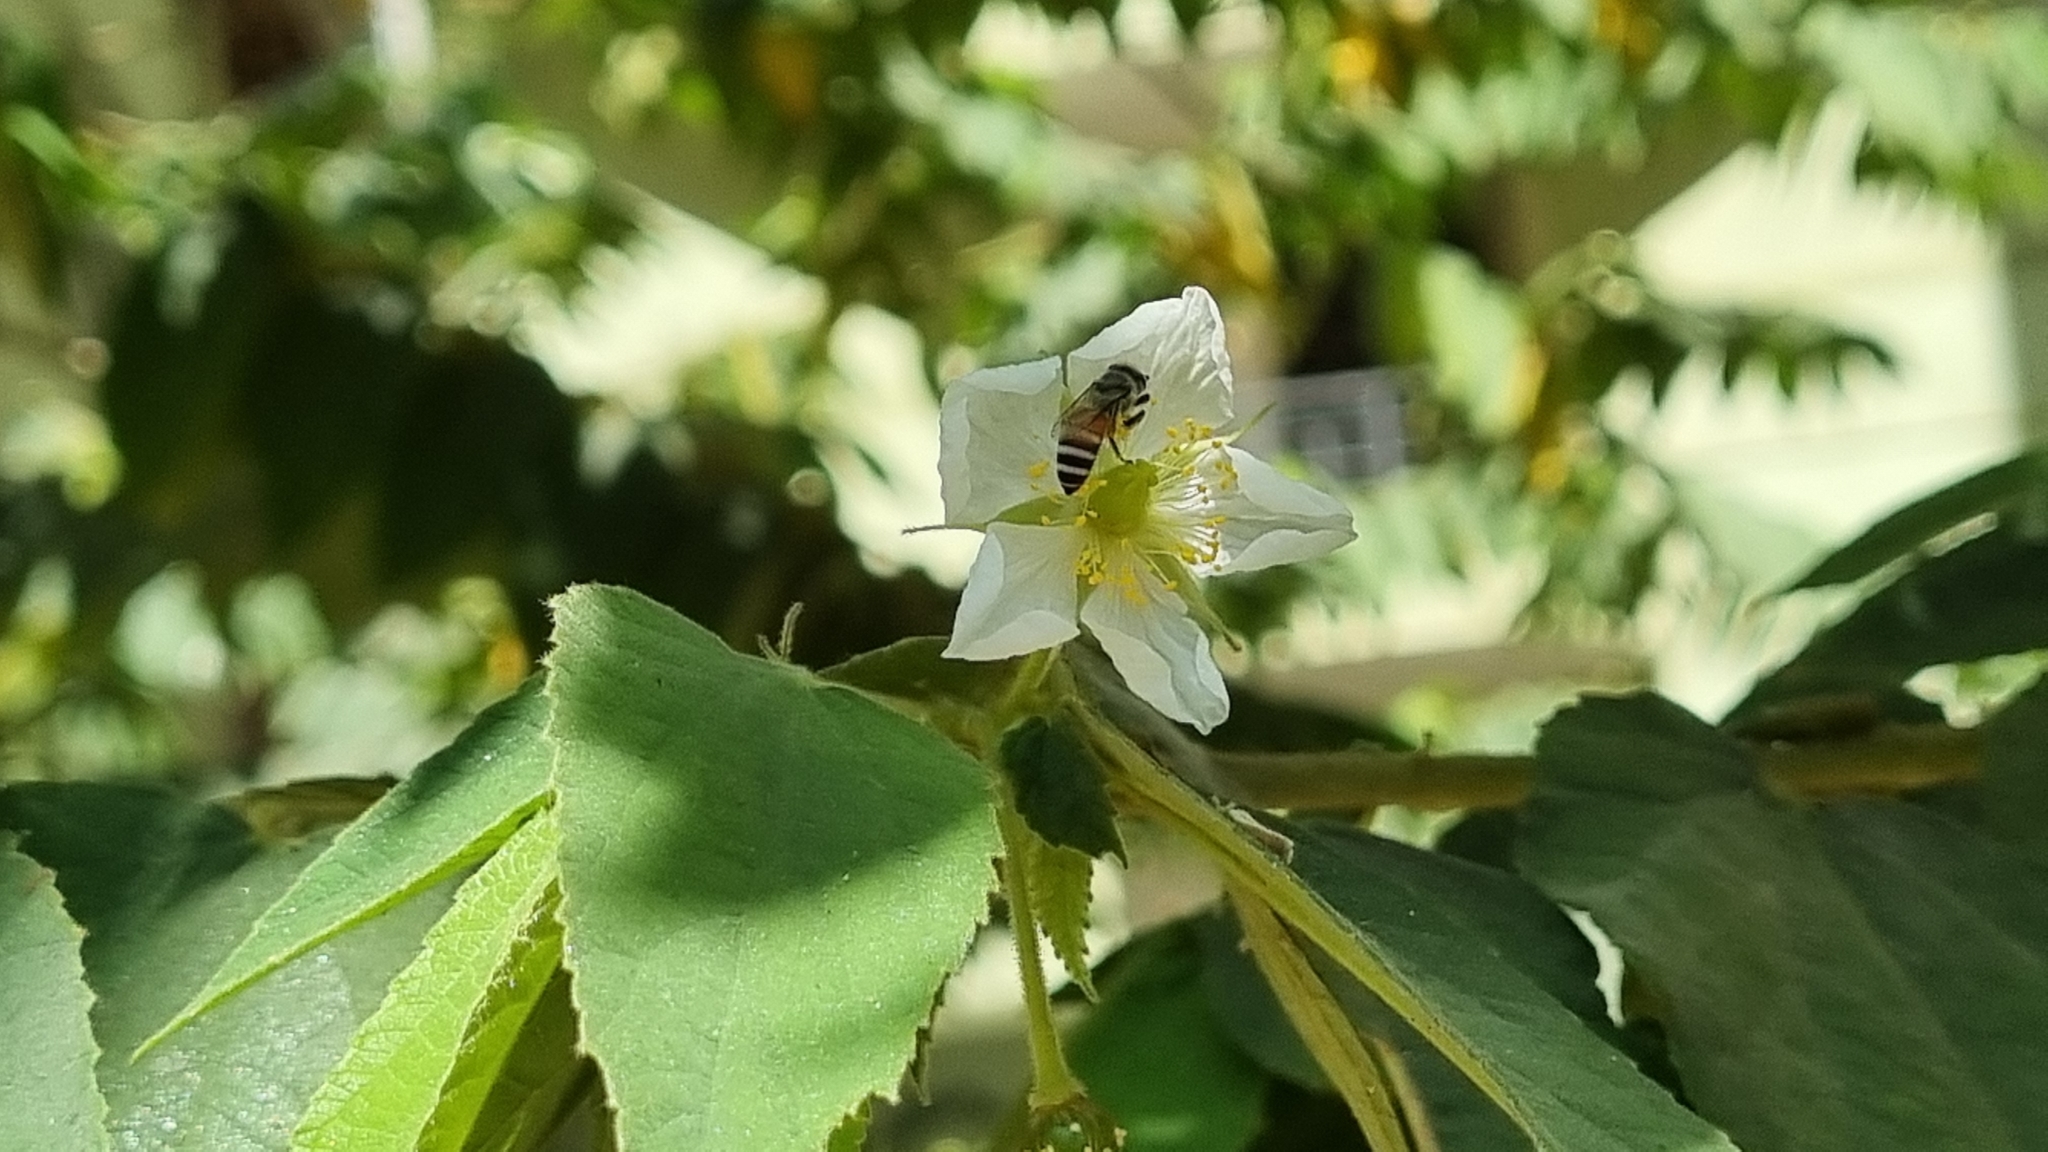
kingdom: Animalia
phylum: Arthropoda
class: Insecta
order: Hymenoptera
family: Apidae
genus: Apis
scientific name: Apis florea
